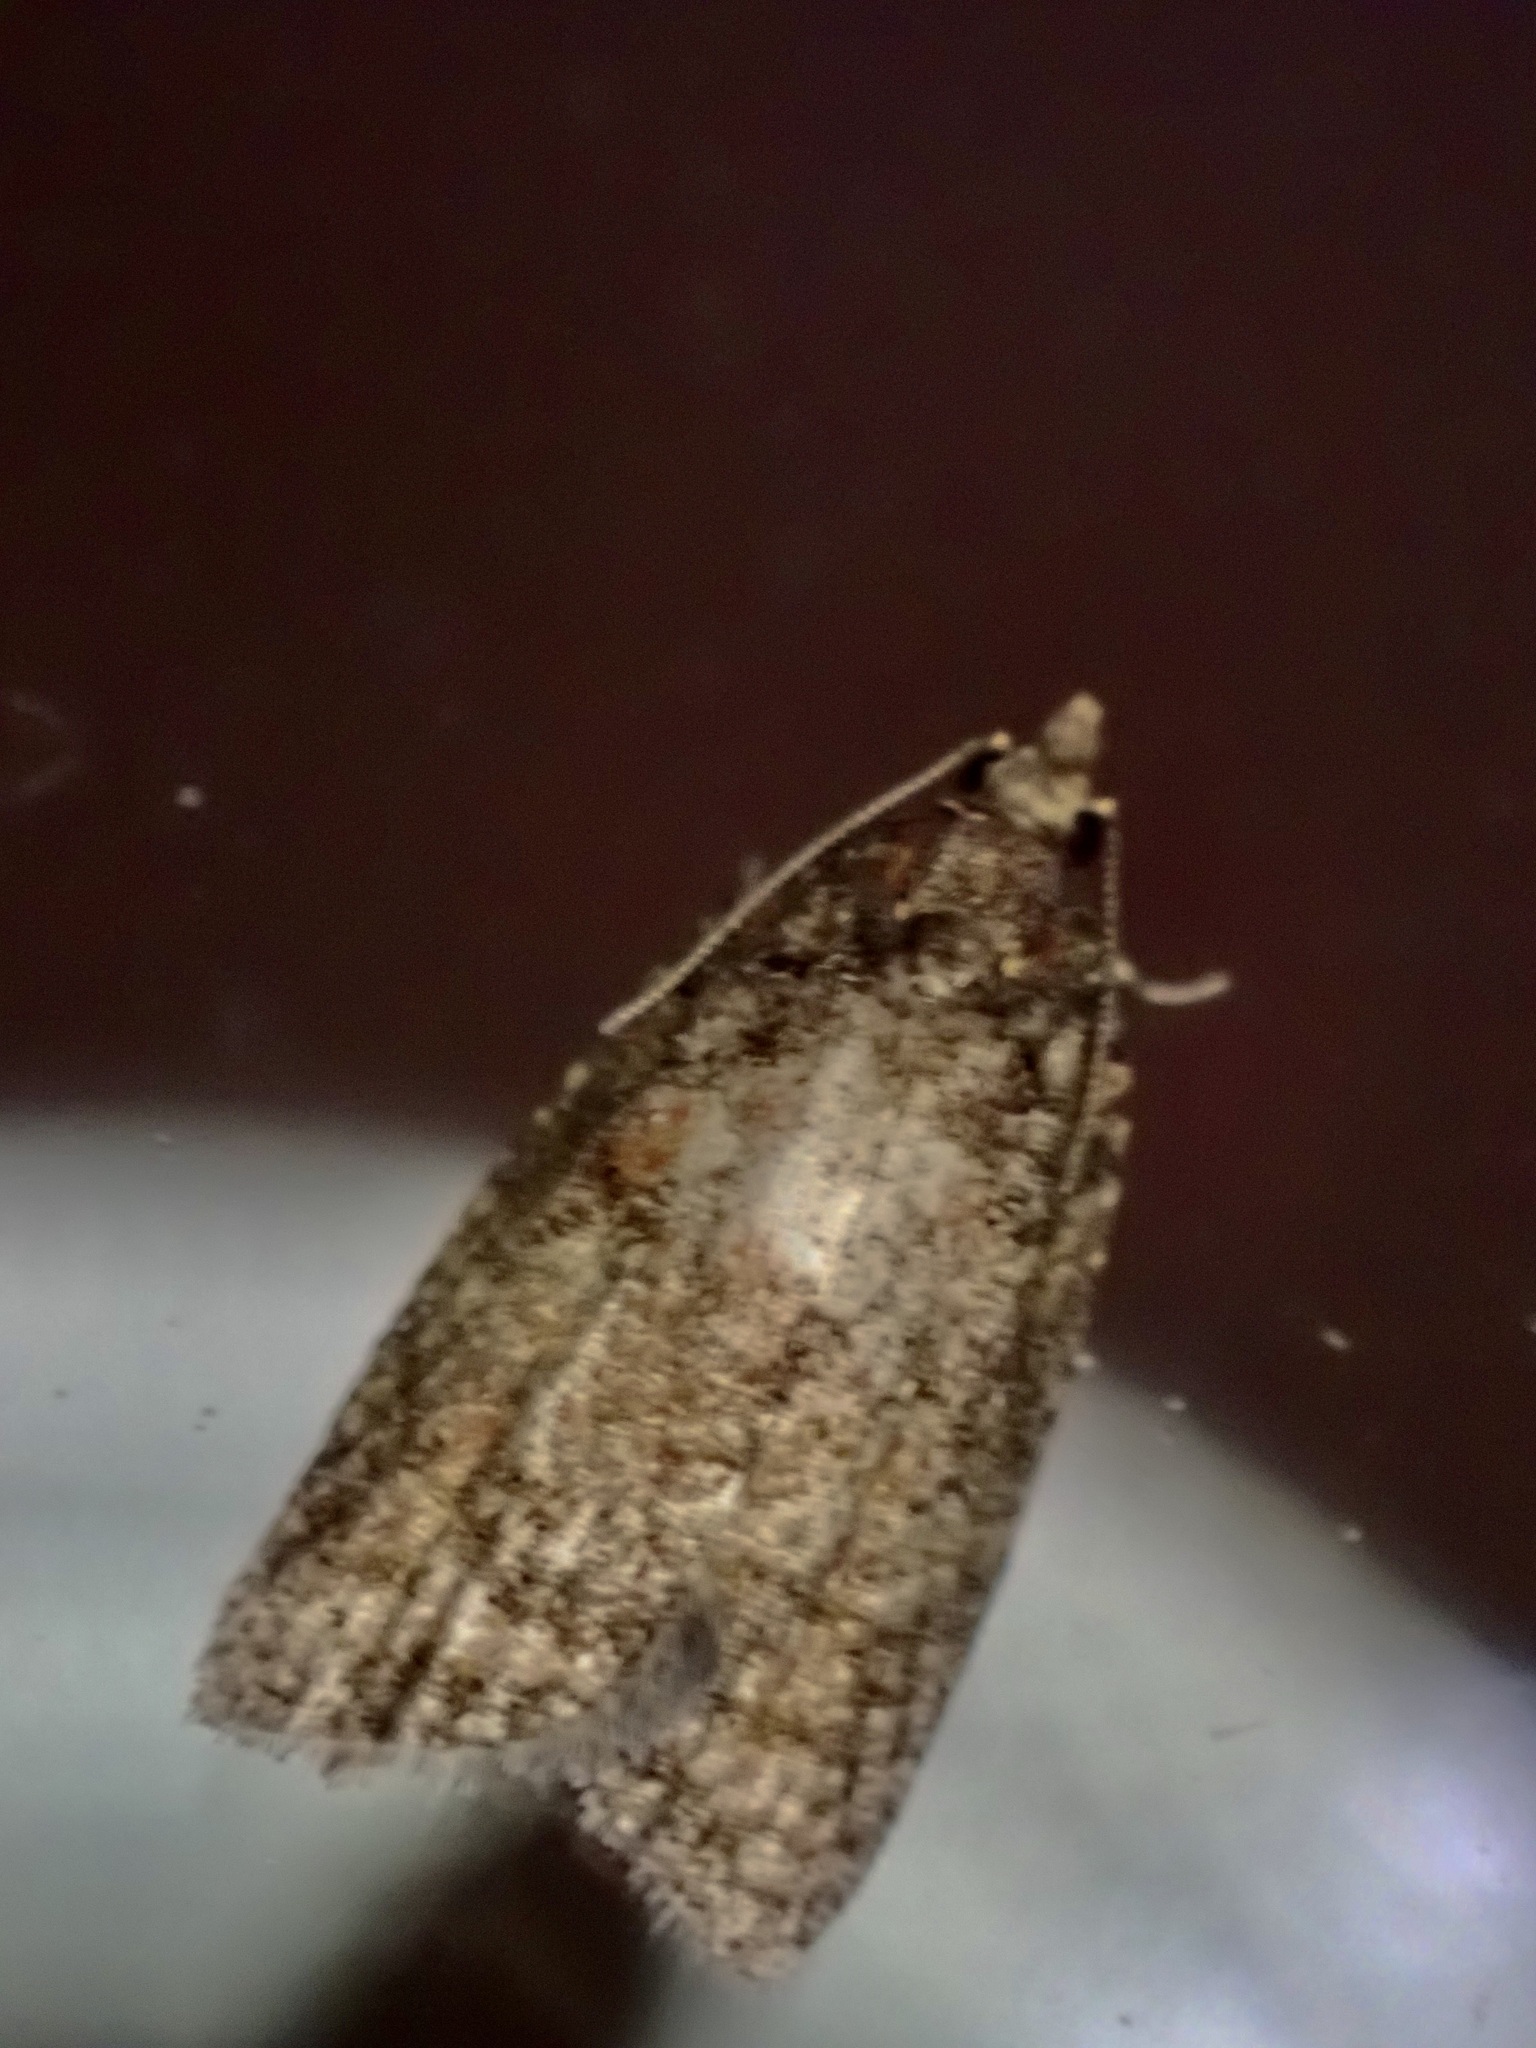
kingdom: Animalia
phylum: Arthropoda
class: Insecta
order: Lepidoptera
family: Tortricidae
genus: Capua
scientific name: Capua intractana
